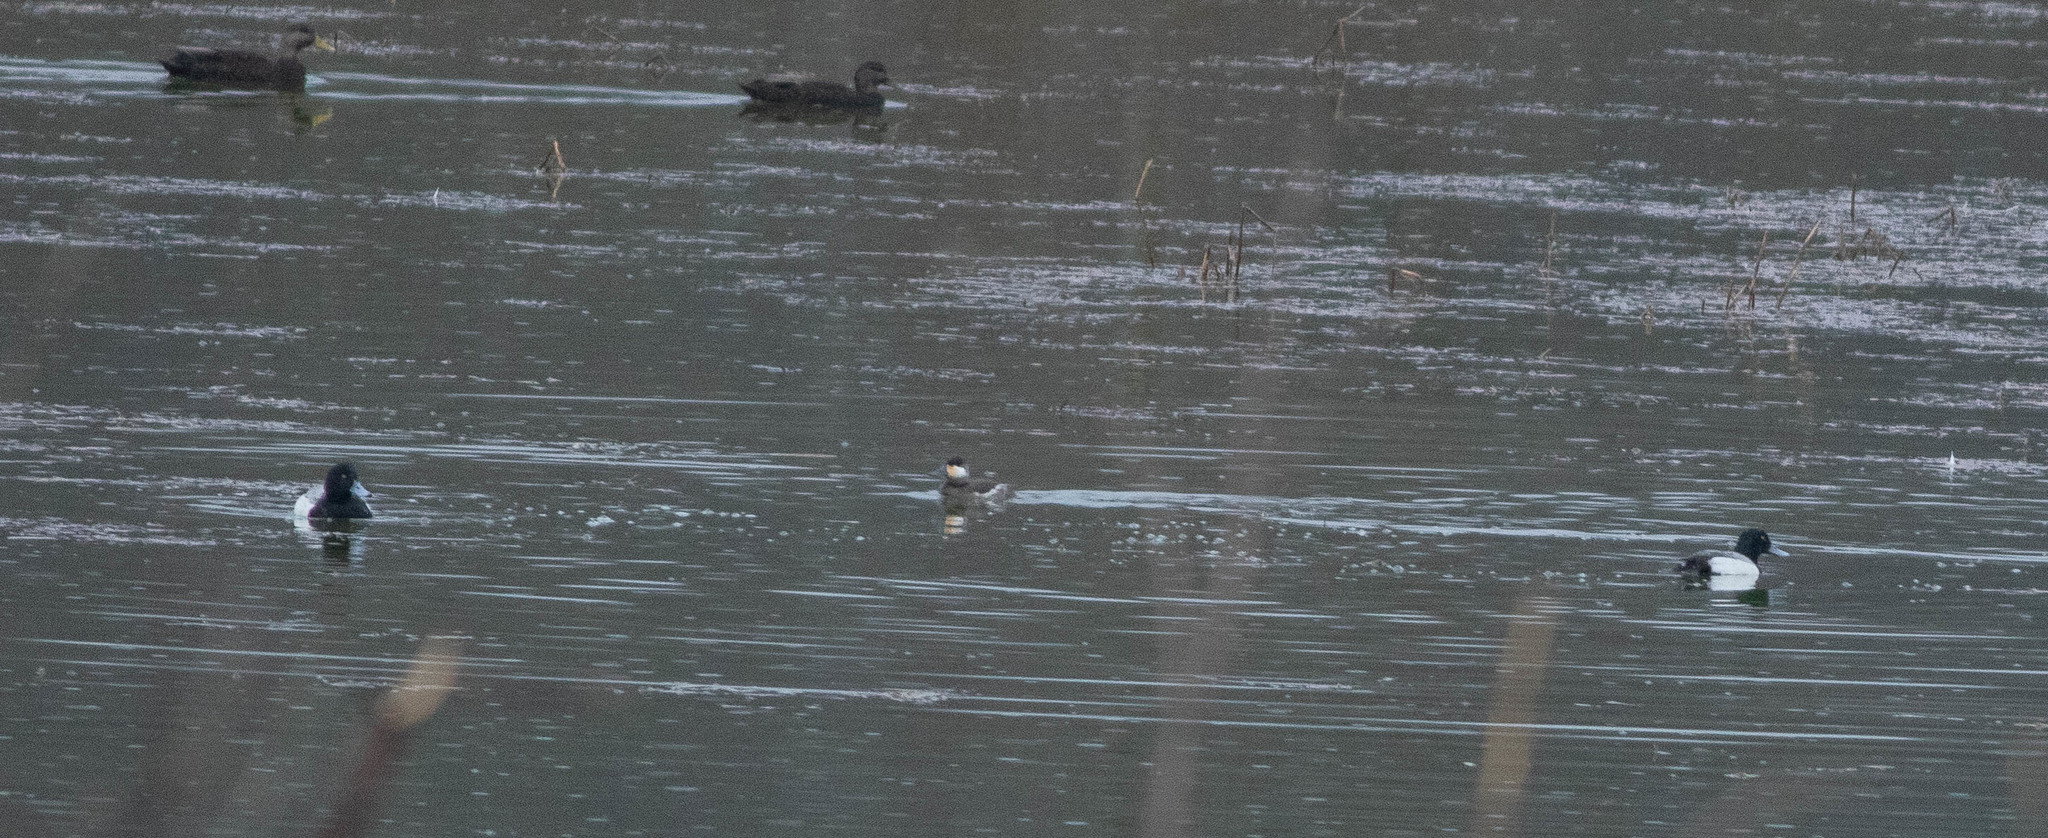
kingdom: Animalia
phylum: Chordata
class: Aves
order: Anseriformes
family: Anatidae
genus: Aythya
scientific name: Aythya marila
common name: Greater scaup
